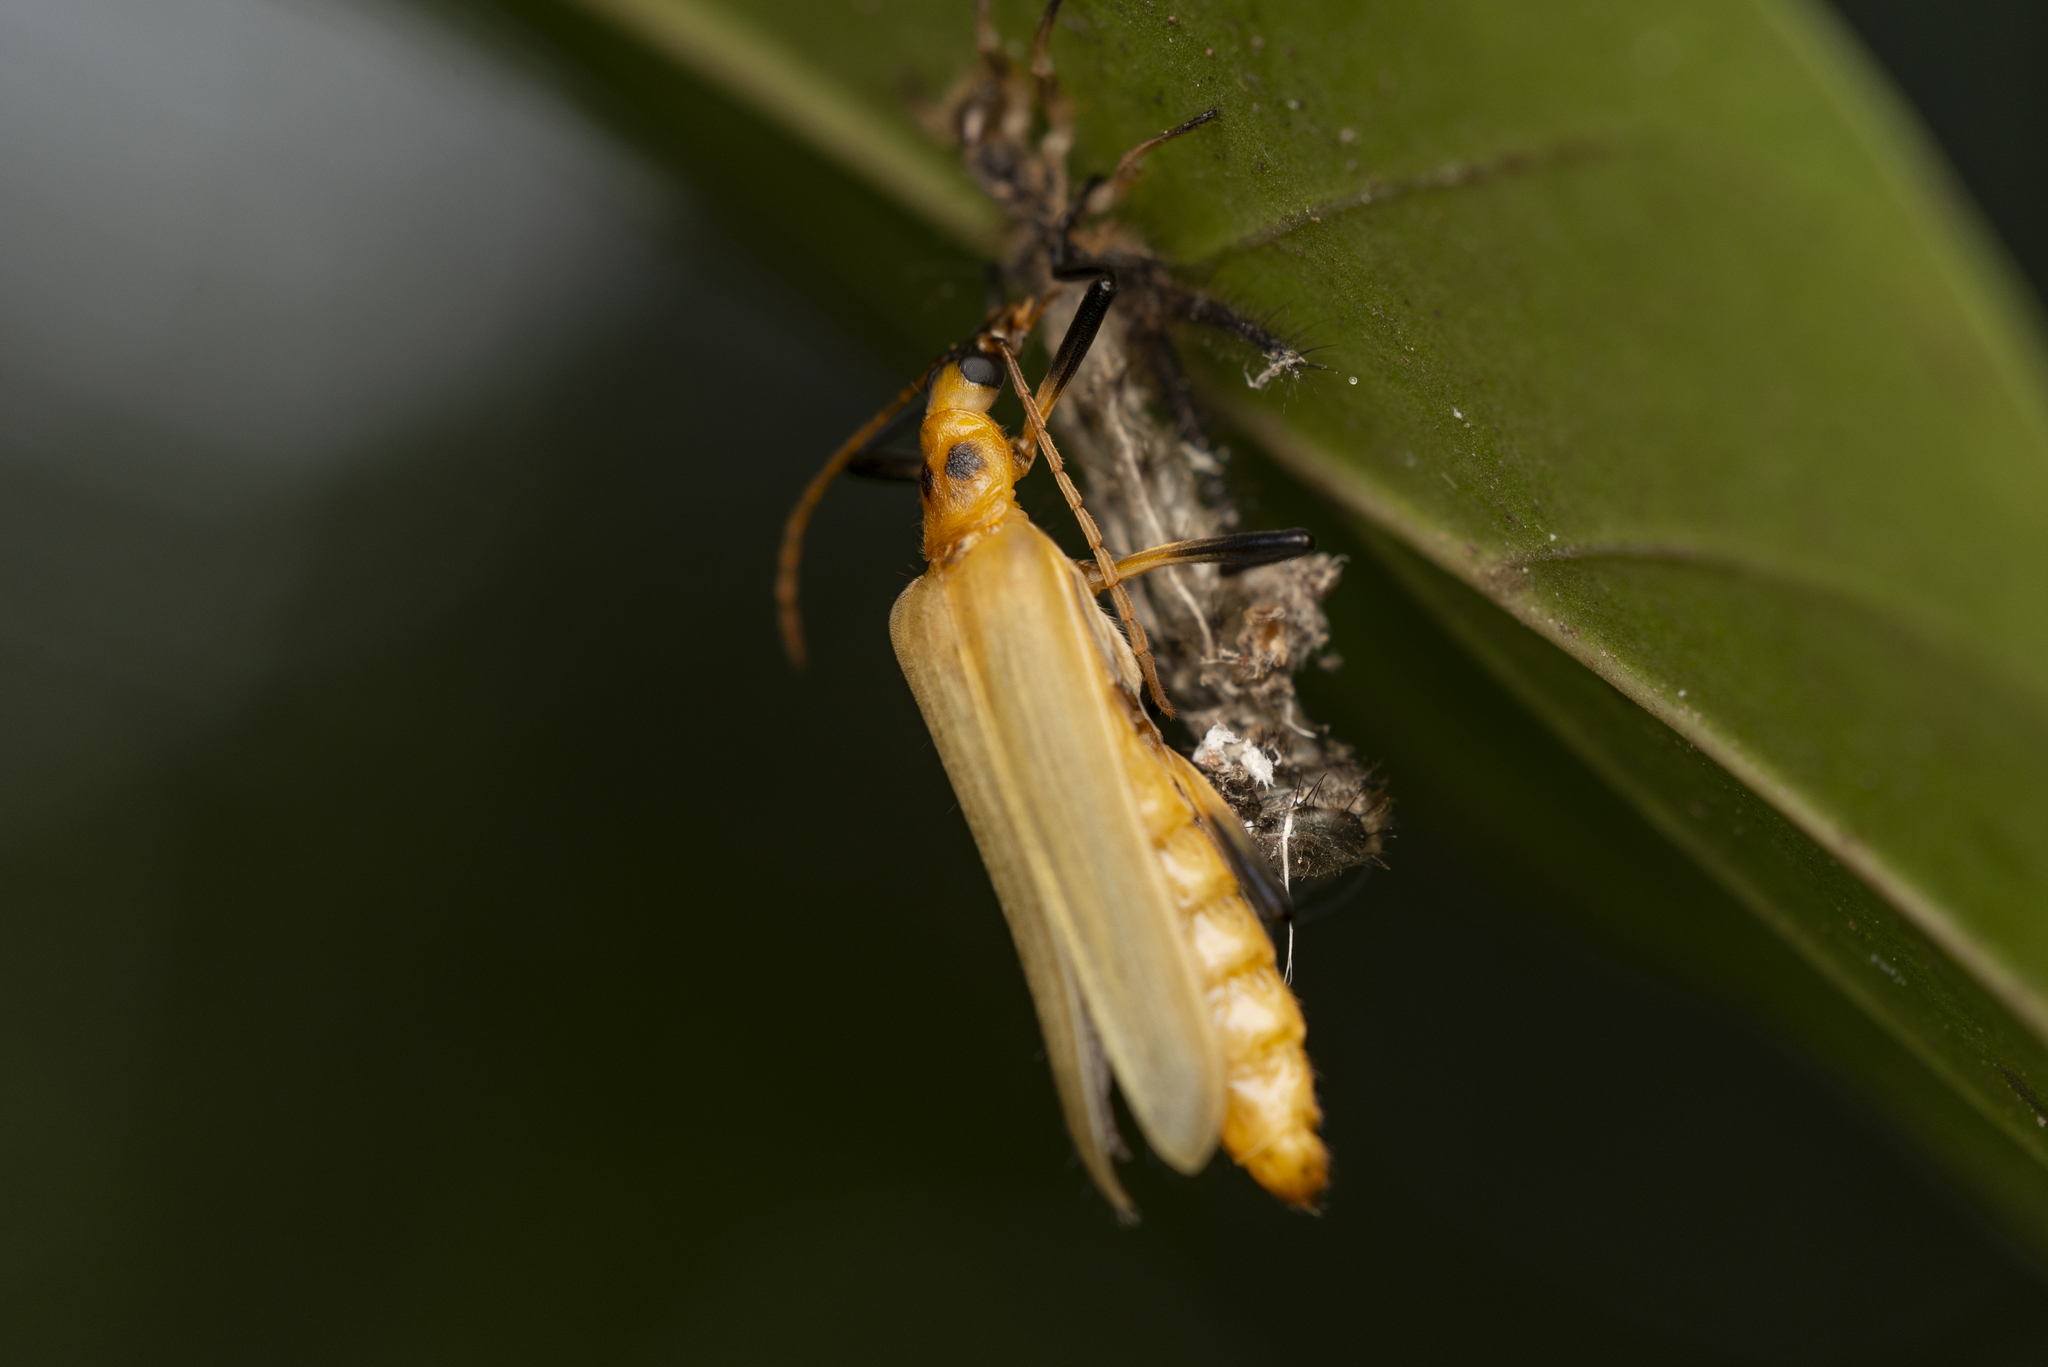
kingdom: Animalia
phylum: Arthropoda
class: Insecta
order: Coleoptera
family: Prionoceridae
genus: Idgia
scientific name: Idgia
